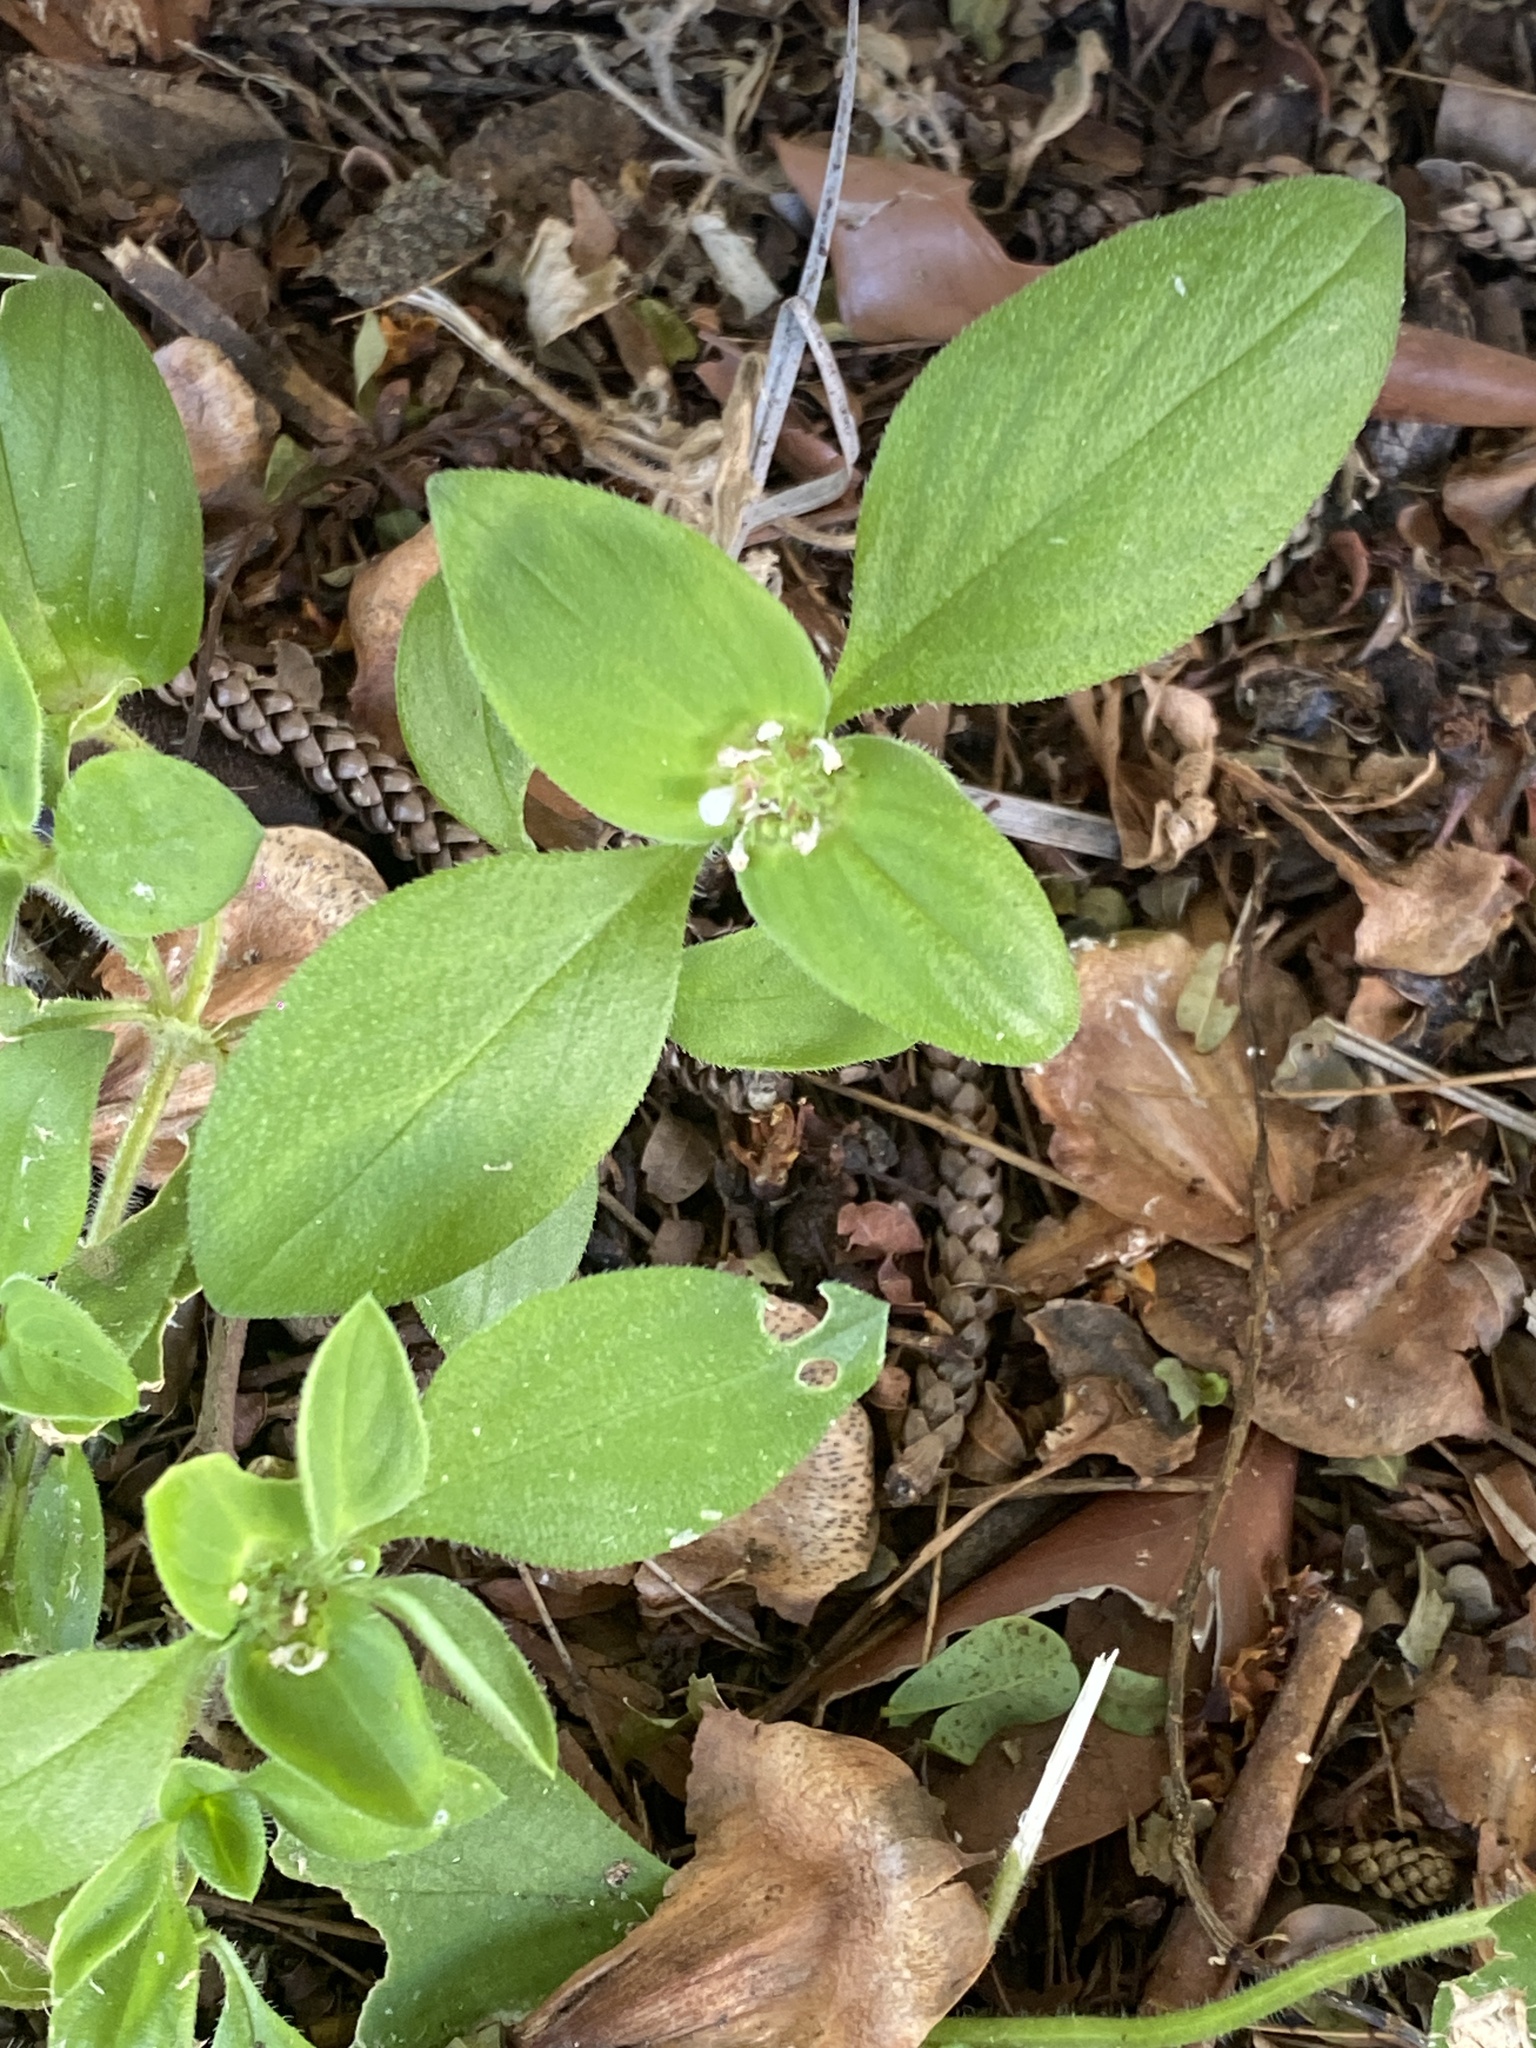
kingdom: Plantae
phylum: Tracheophyta
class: Magnoliopsida
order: Gentianales
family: Rubiaceae
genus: Richardia
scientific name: Richardia brasiliensis
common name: Tropical mexican clover
